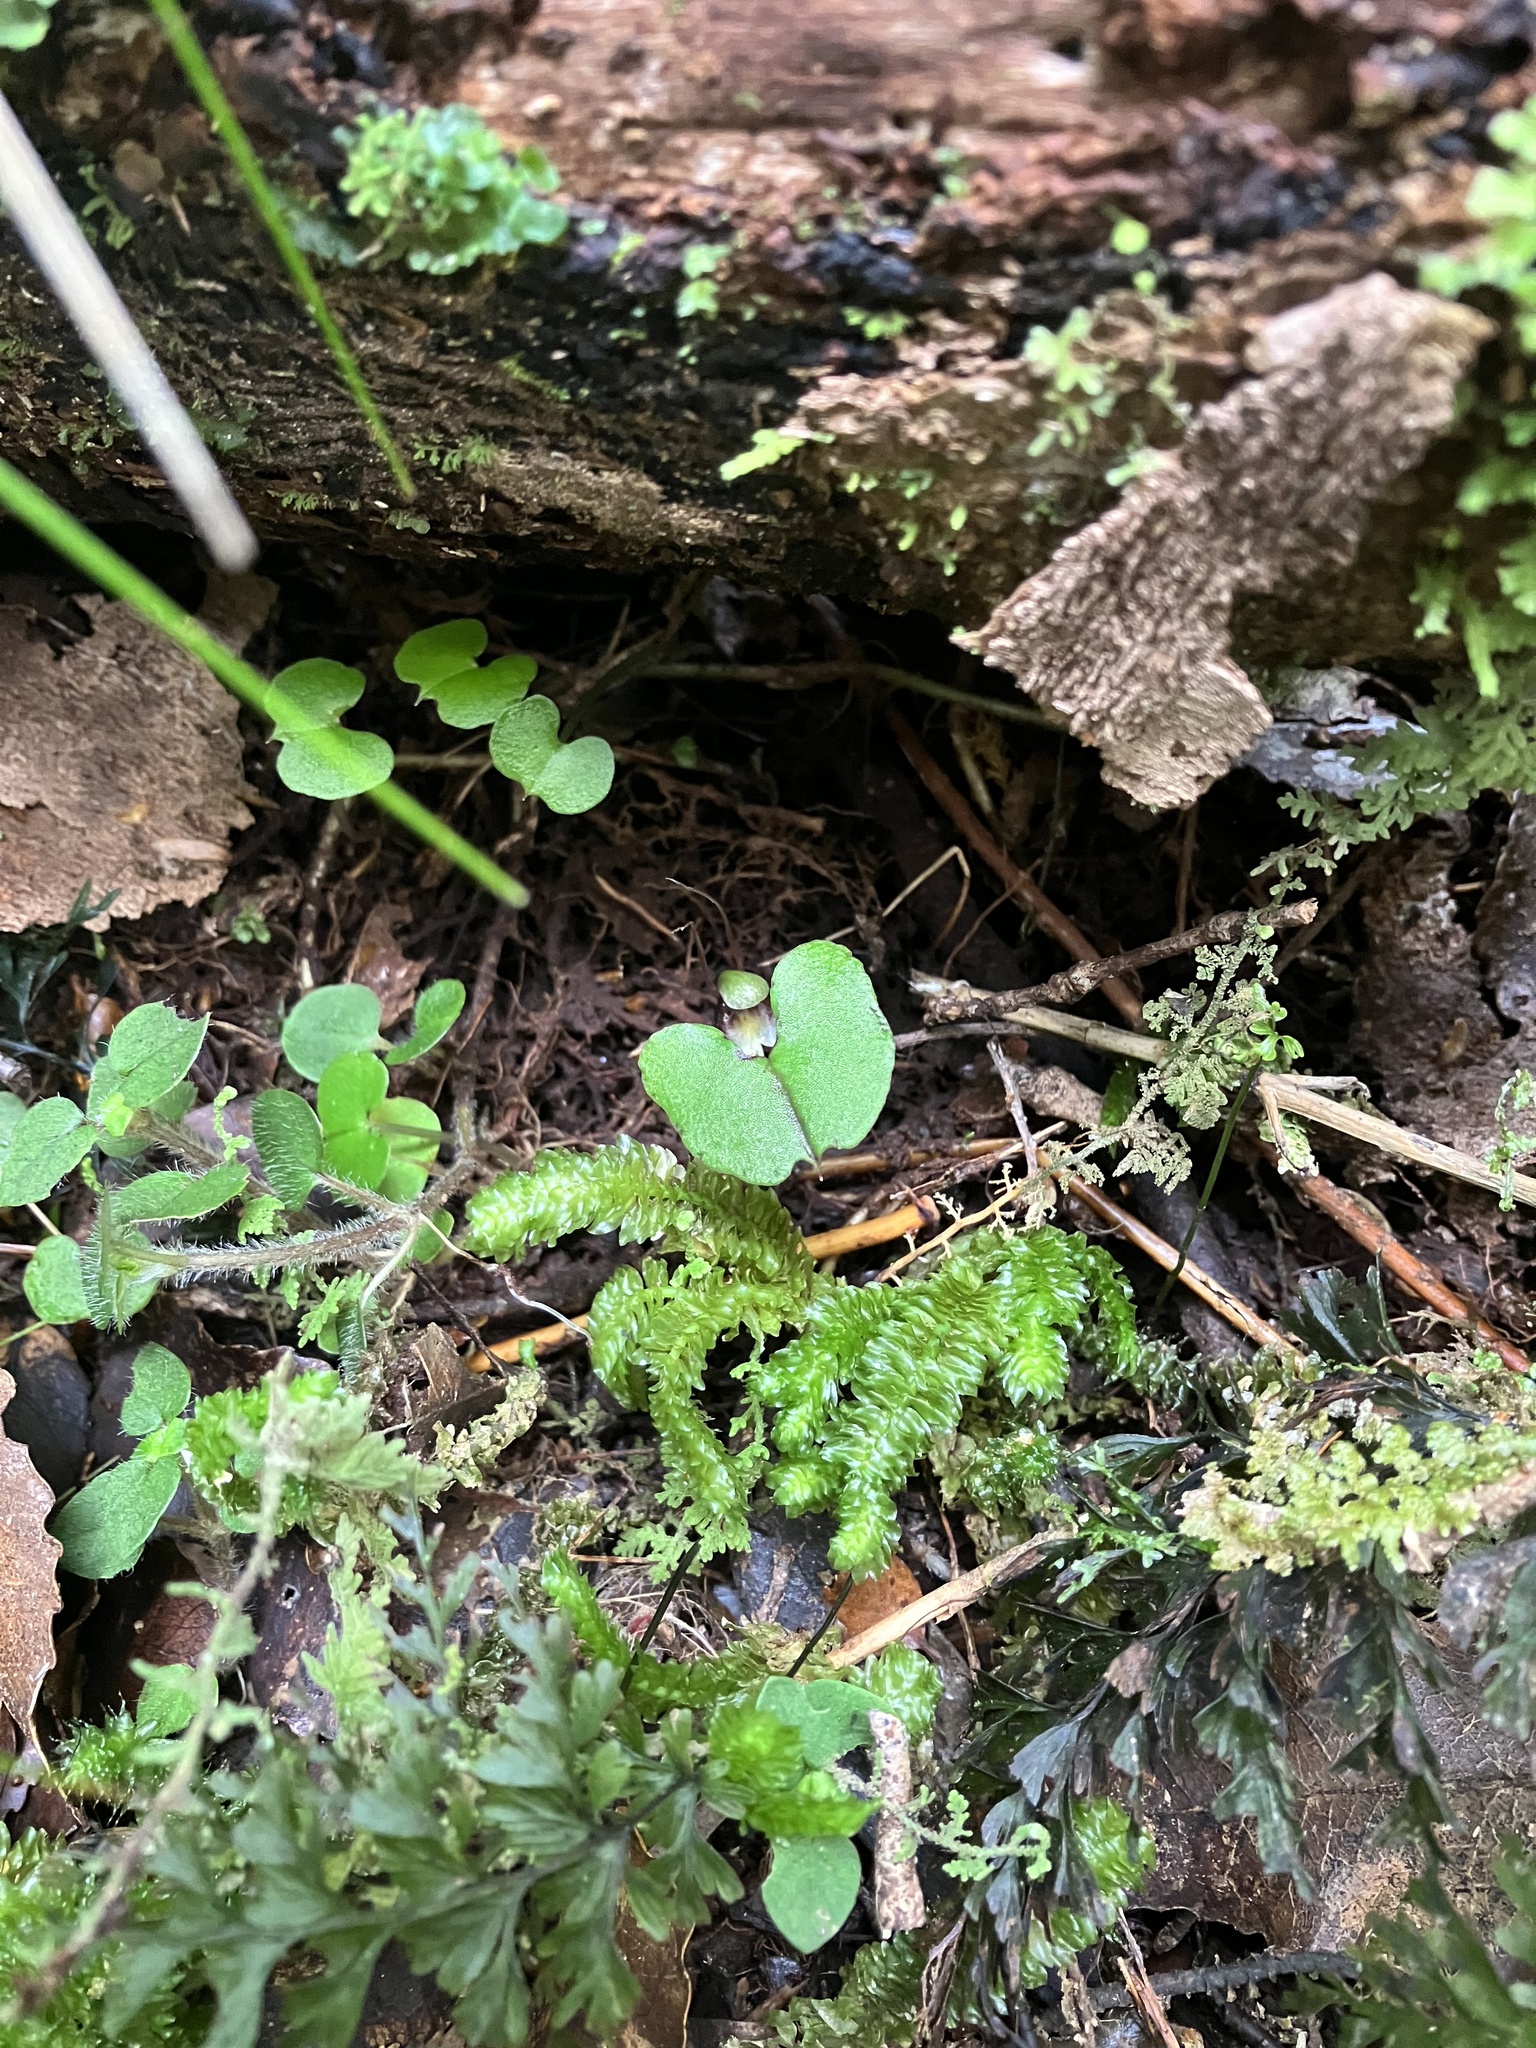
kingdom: Plantae
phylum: Tracheophyta
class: Liliopsida
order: Asparagales
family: Orchidaceae
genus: Corybas
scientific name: Corybas hypogaeus
